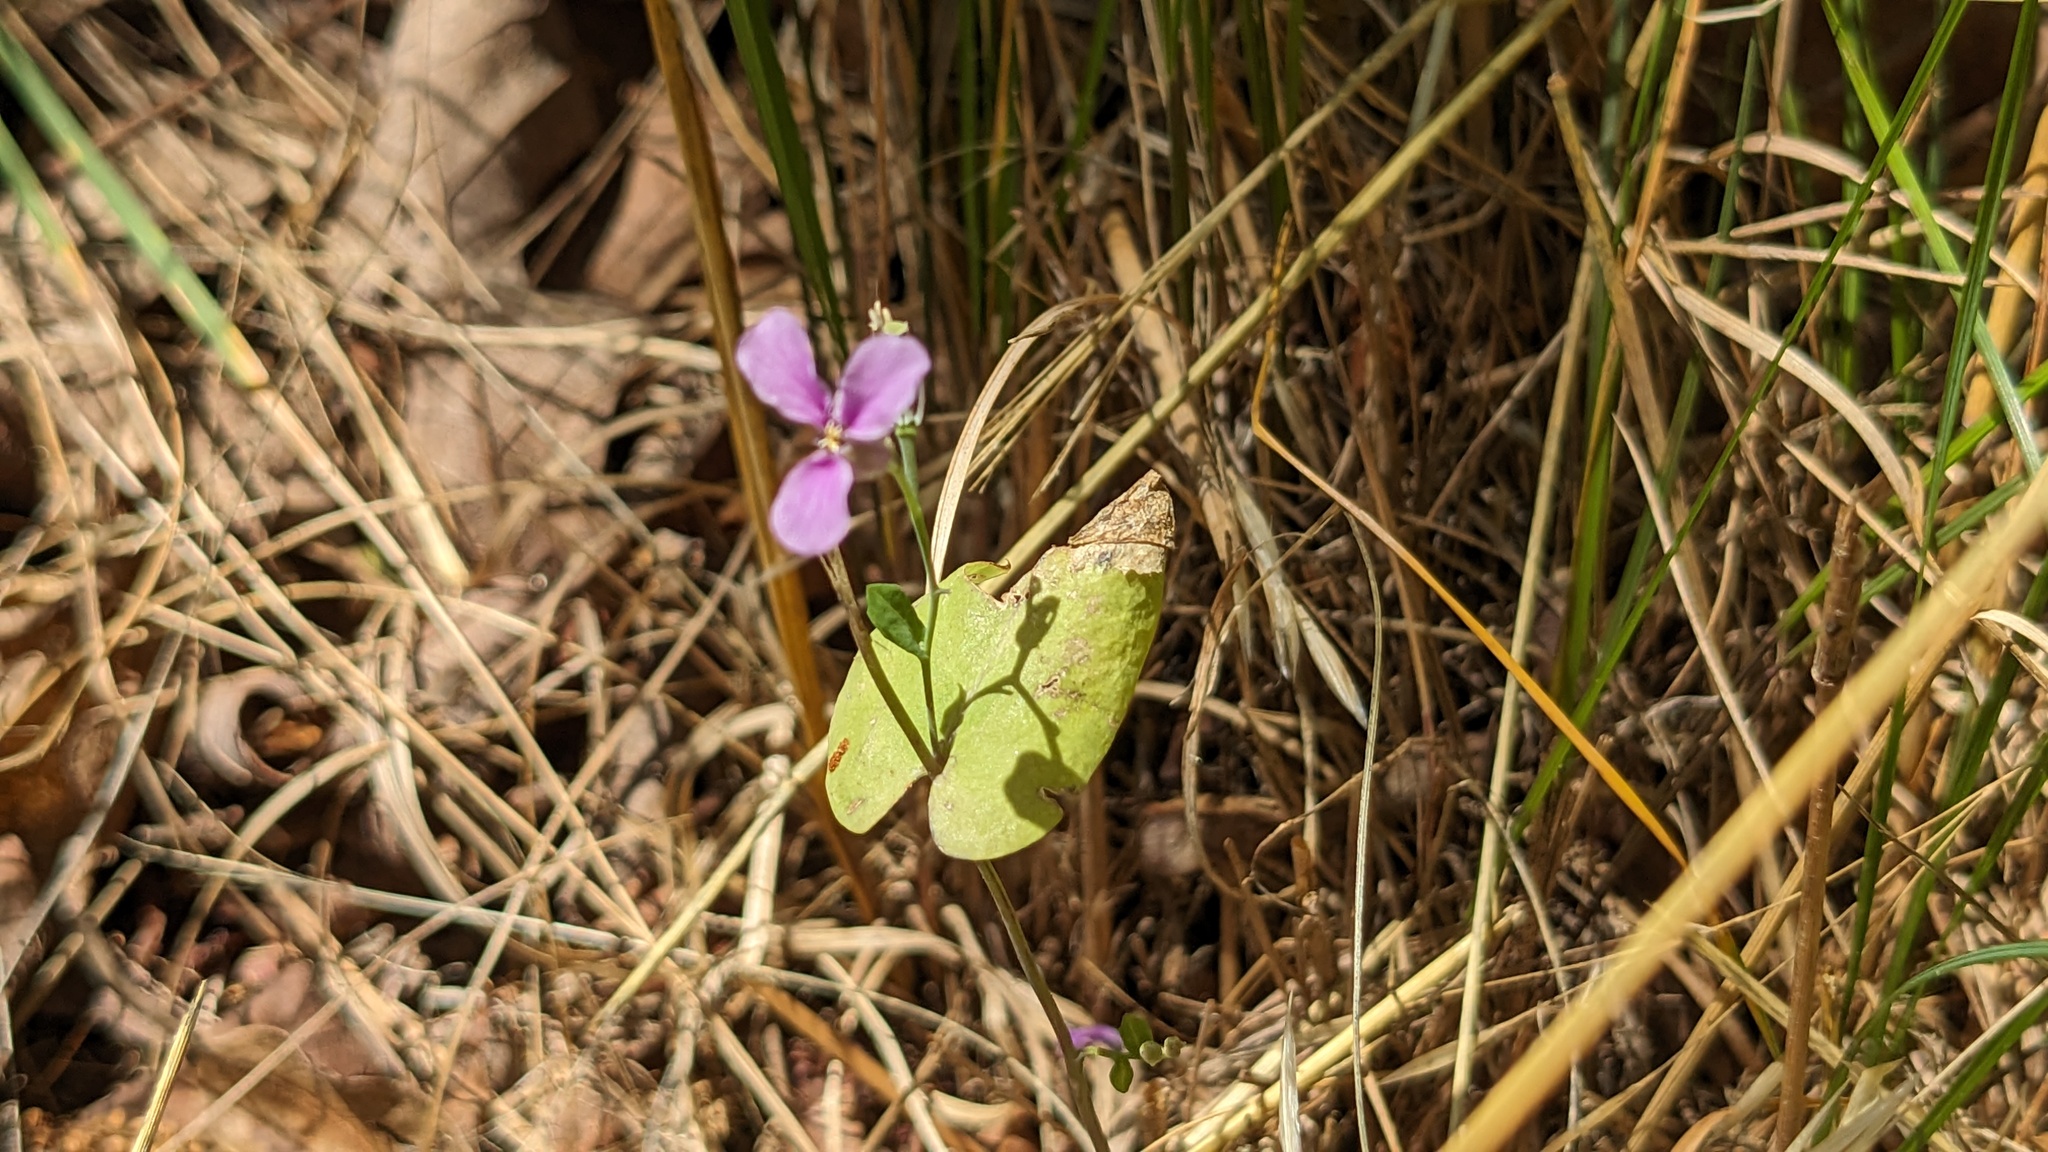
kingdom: Plantae
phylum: Tracheophyta
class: Magnoliopsida
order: Brassicales
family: Brassicaceae
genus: Streptanthus
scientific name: Streptanthus maculatus
